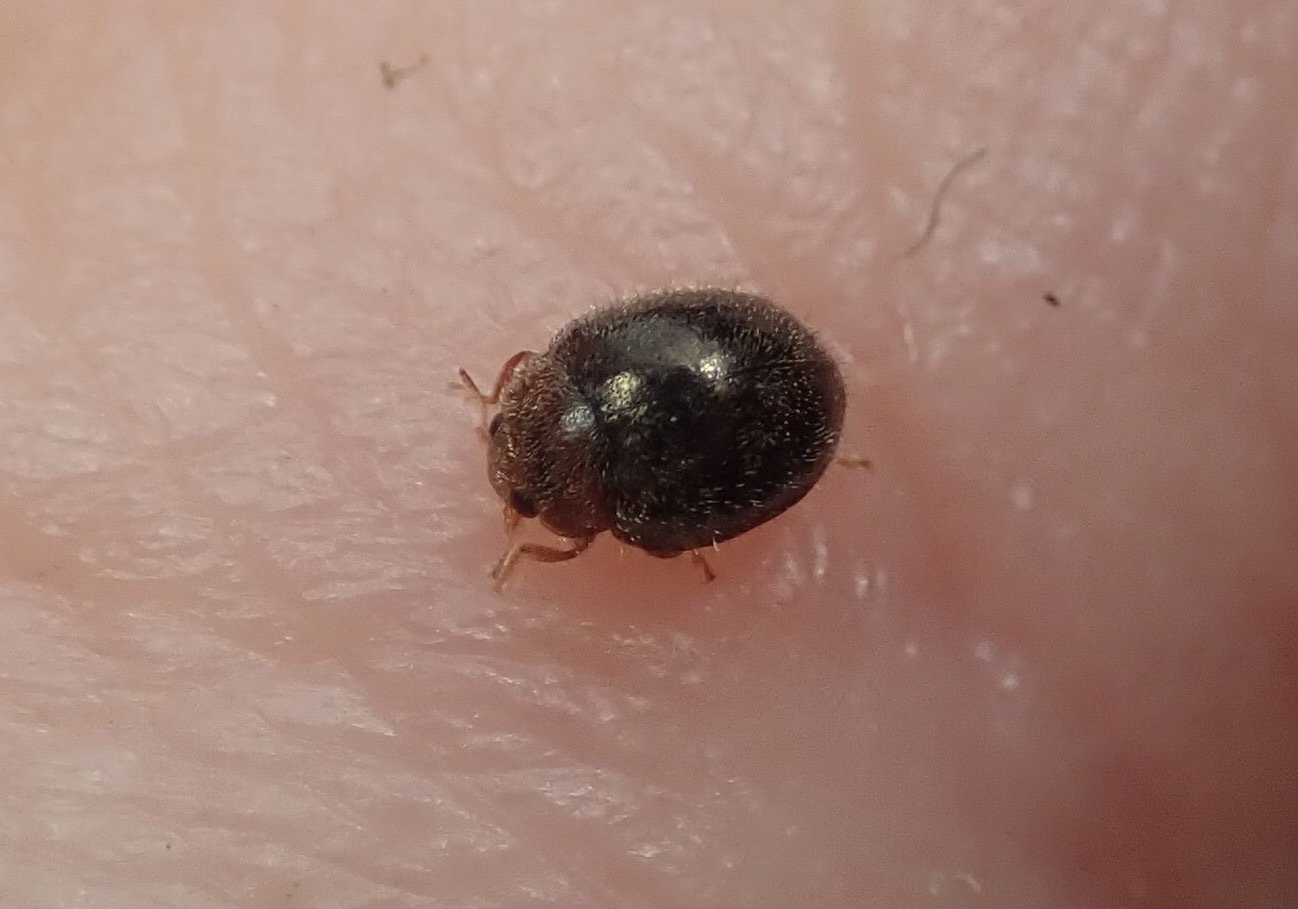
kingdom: Animalia
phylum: Arthropoda
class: Insecta
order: Coleoptera
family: Coccinellidae
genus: Rhyzobius
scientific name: Rhyzobius lophanthae
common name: Scale-eating ladybird beetle
